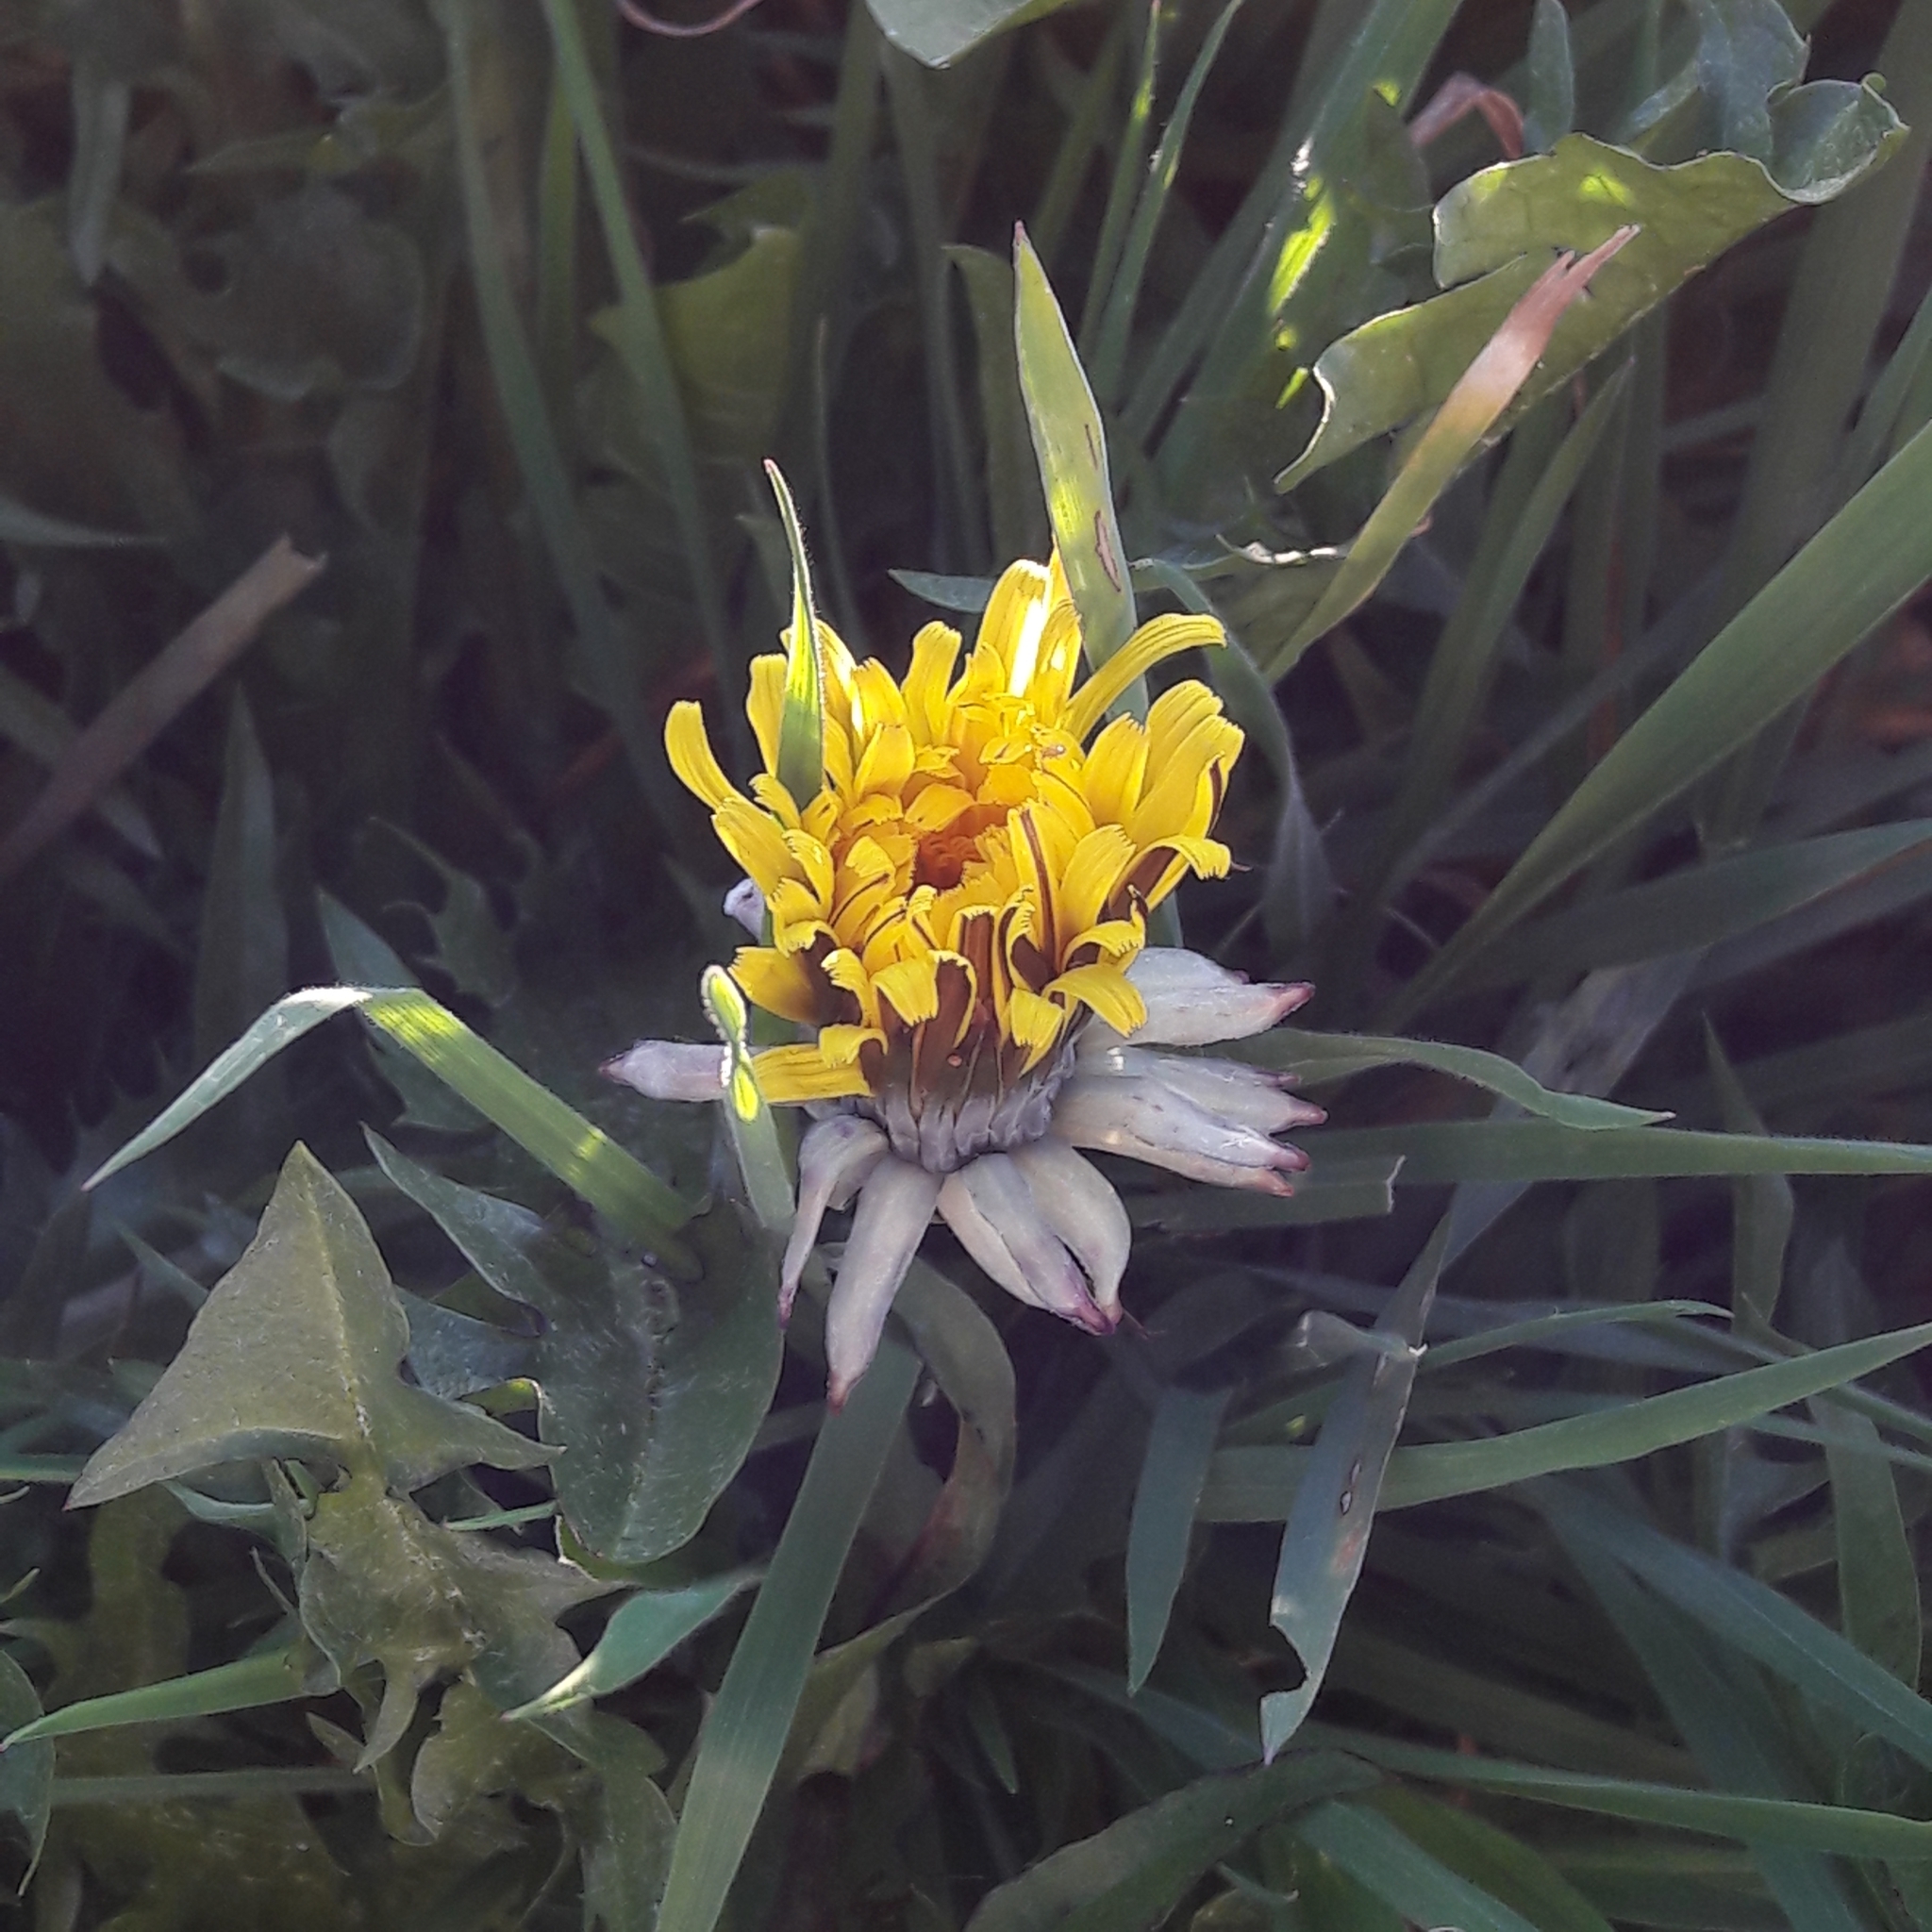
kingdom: Plantae
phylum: Tracheophyta
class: Magnoliopsida
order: Asterales
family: Asteraceae
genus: Taraxacum
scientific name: Taraxacum officinale
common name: Common dandelion
